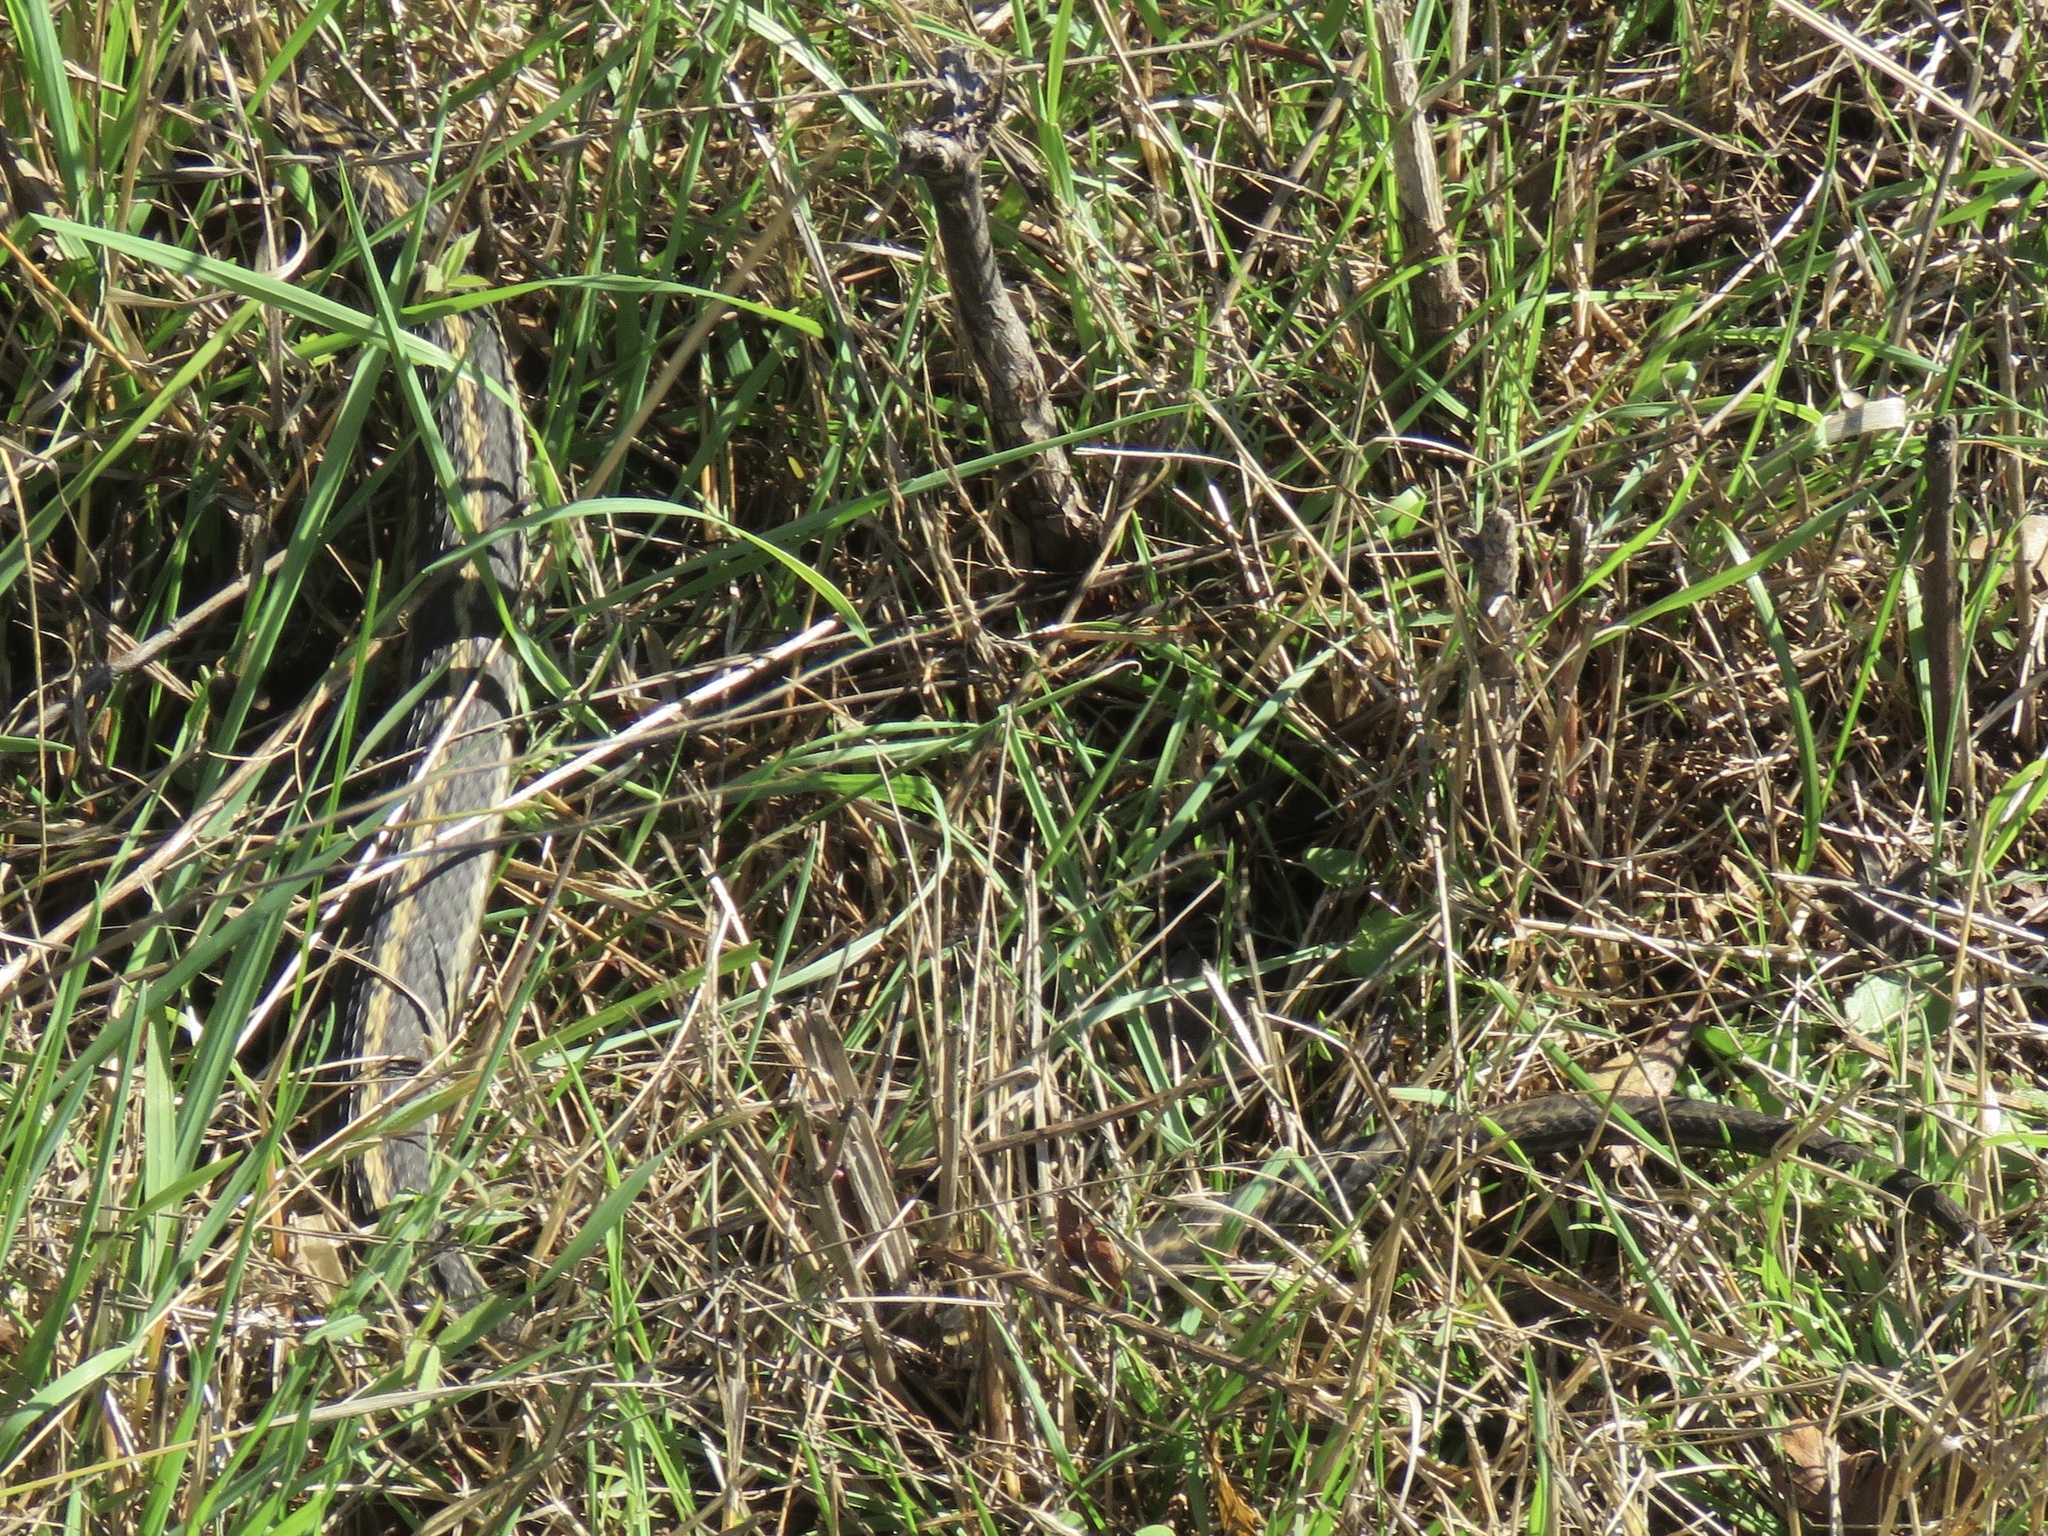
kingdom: Animalia
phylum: Chordata
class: Squamata
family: Colubridae
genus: Thamnophis
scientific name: Thamnophis elegans
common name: Western terrestrial garter snake
